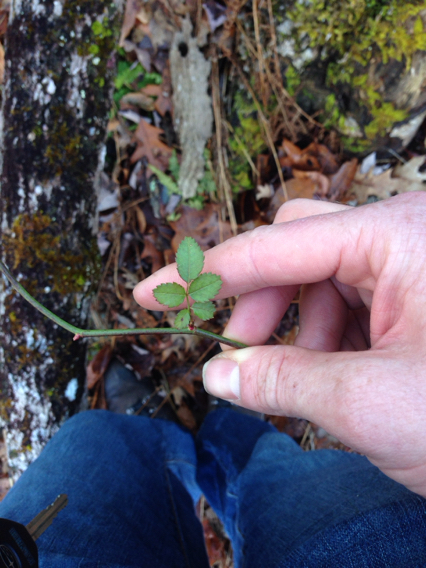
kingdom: Plantae
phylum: Tracheophyta
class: Magnoliopsida
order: Rosales
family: Rosaceae
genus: Rosa
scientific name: Rosa multiflora
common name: Multiflora rose
